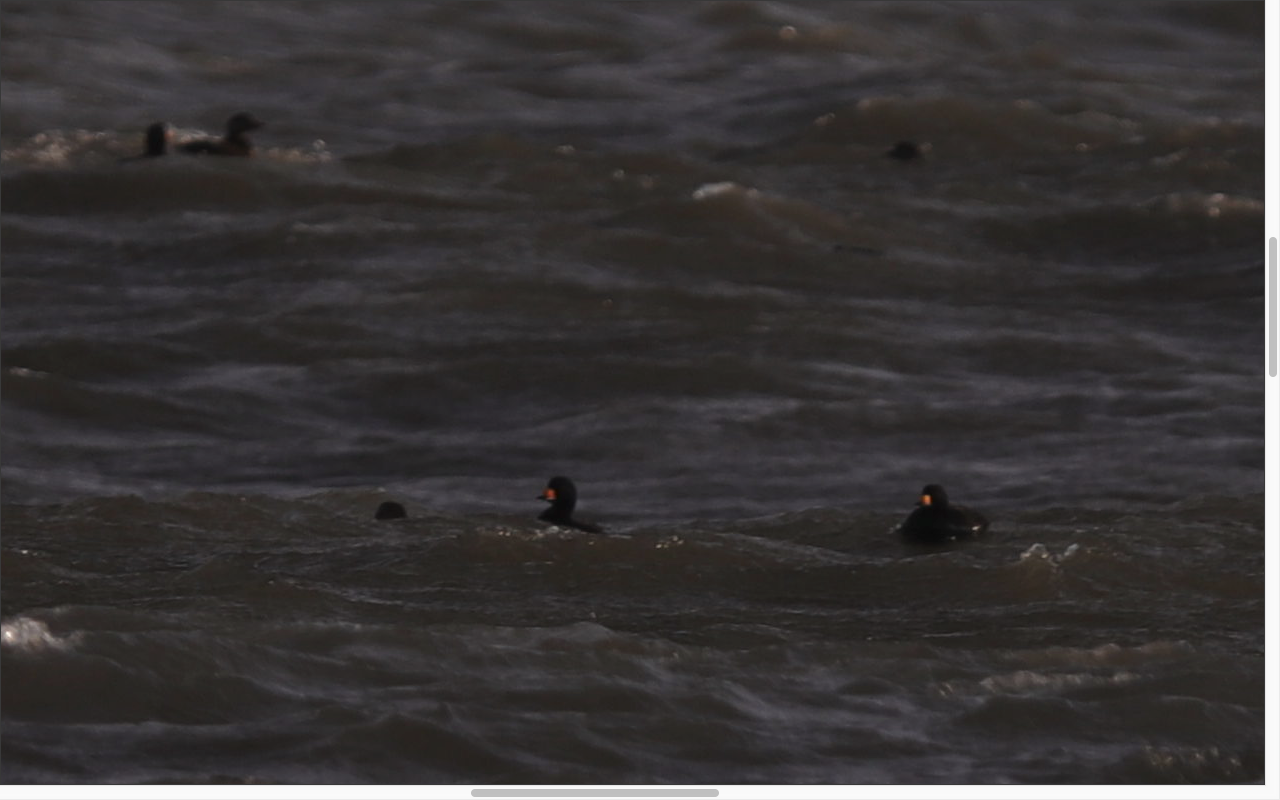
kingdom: Animalia
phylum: Chordata
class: Aves
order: Anseriformes
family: Anatidae
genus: Melanitta
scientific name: Melanitta americana
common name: Black scoter
